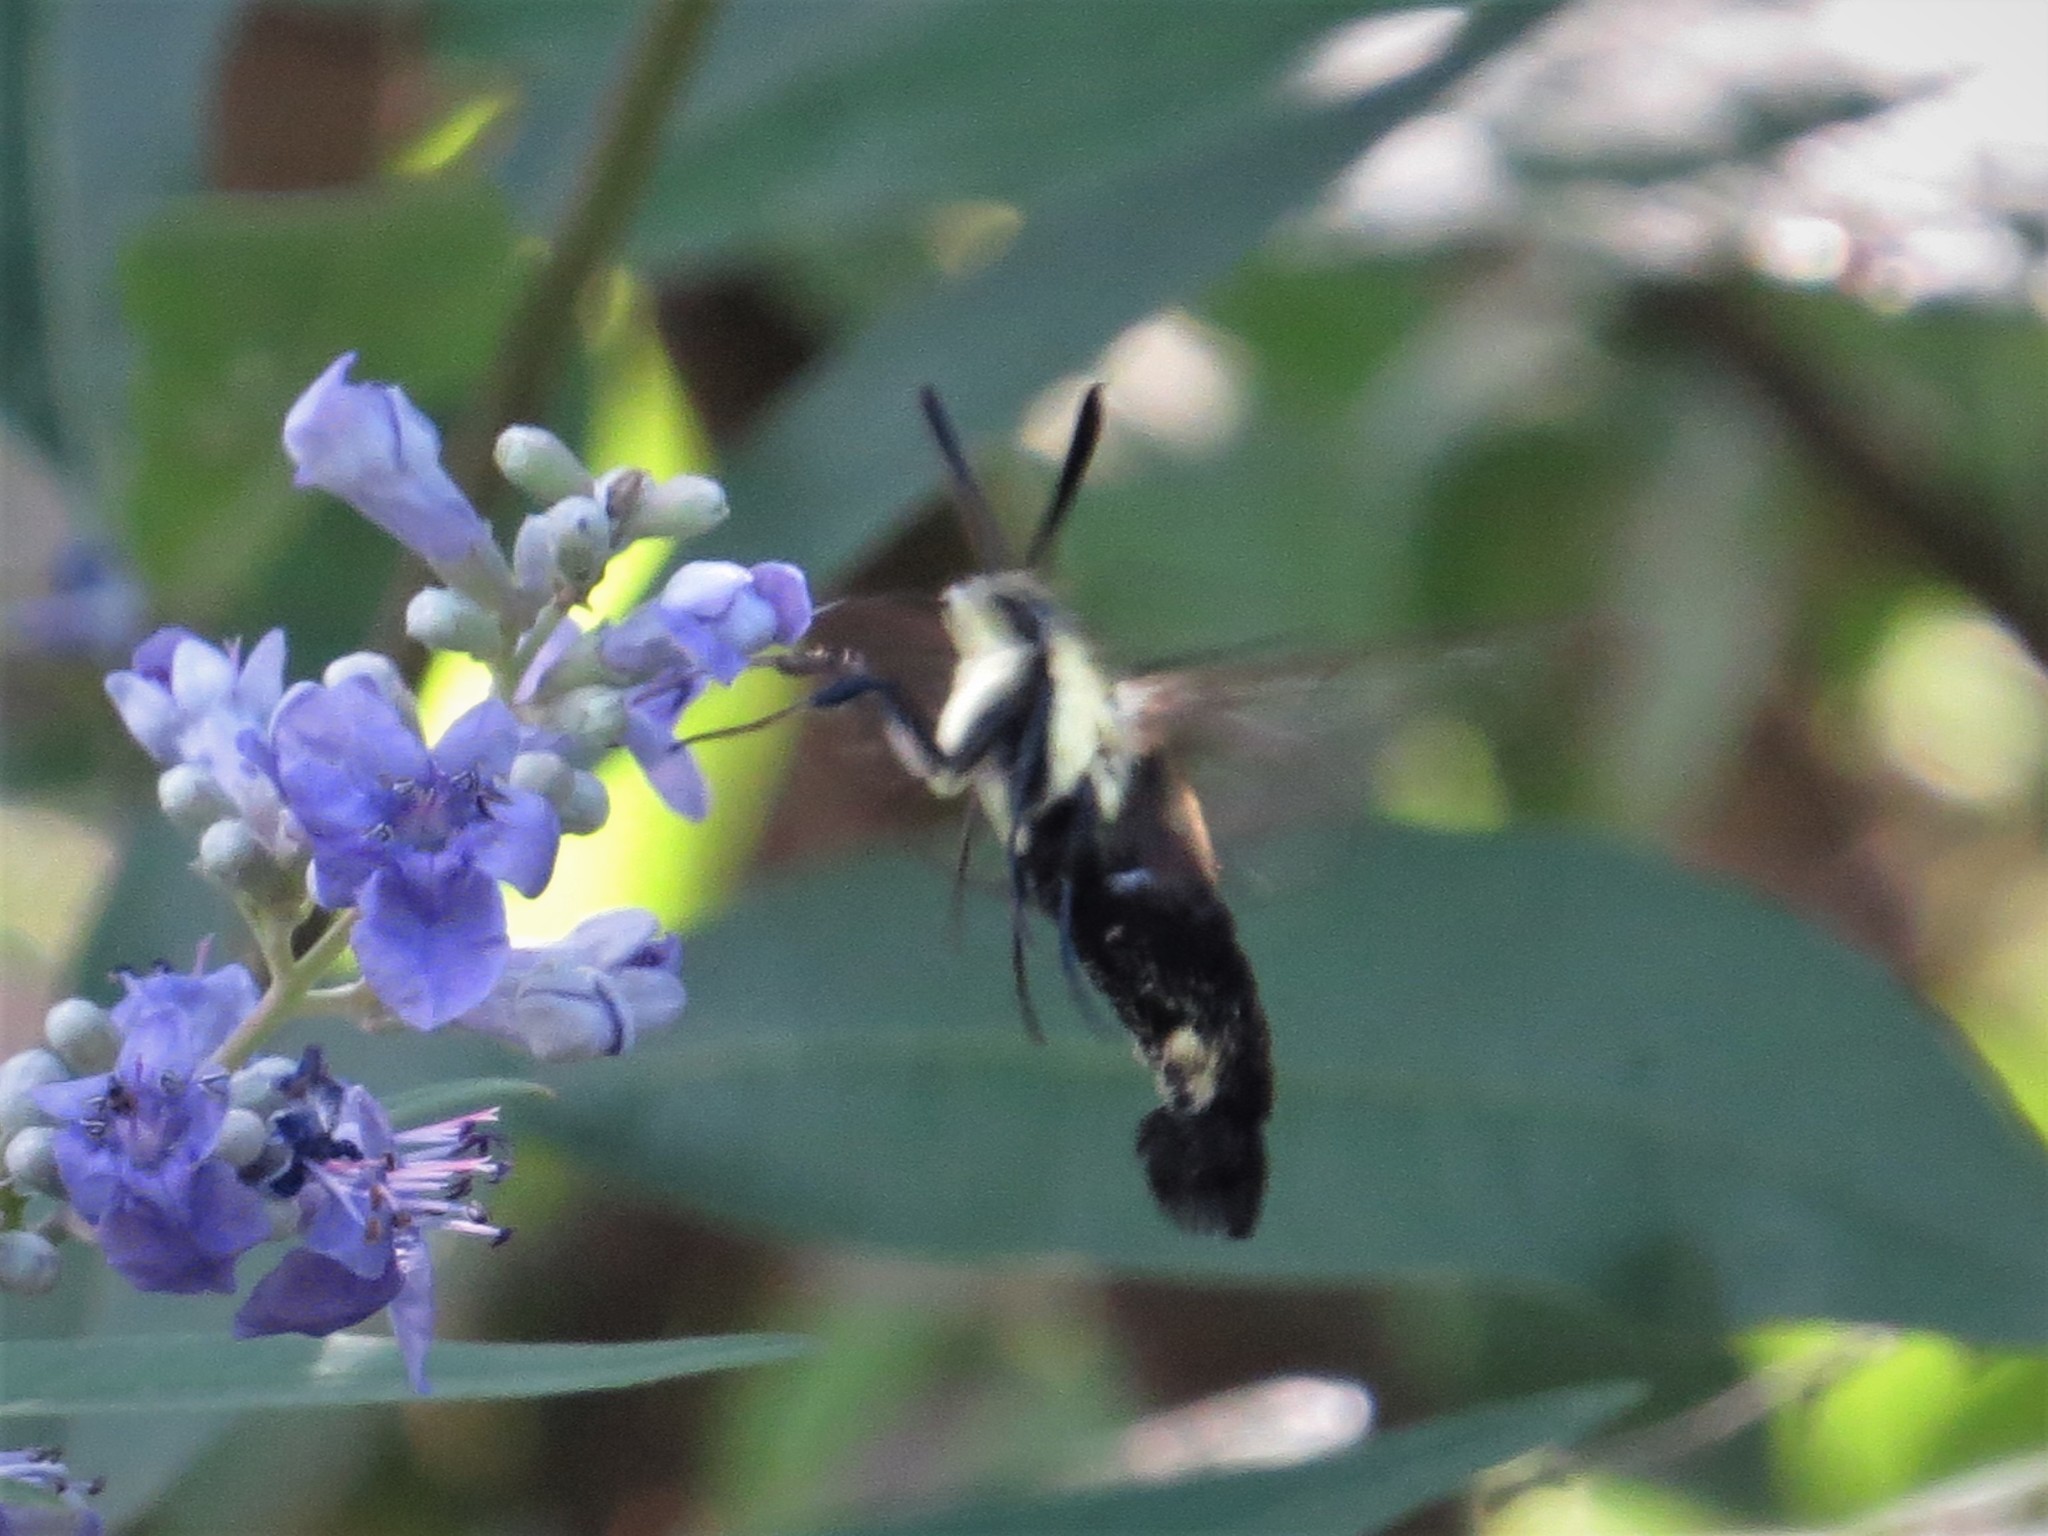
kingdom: Animalia
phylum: Arthropoda
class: Insecta
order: Lepidoptera
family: Sphingidae
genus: Hemaris
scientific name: Hemaris diffinis
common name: Bumblebee moth
